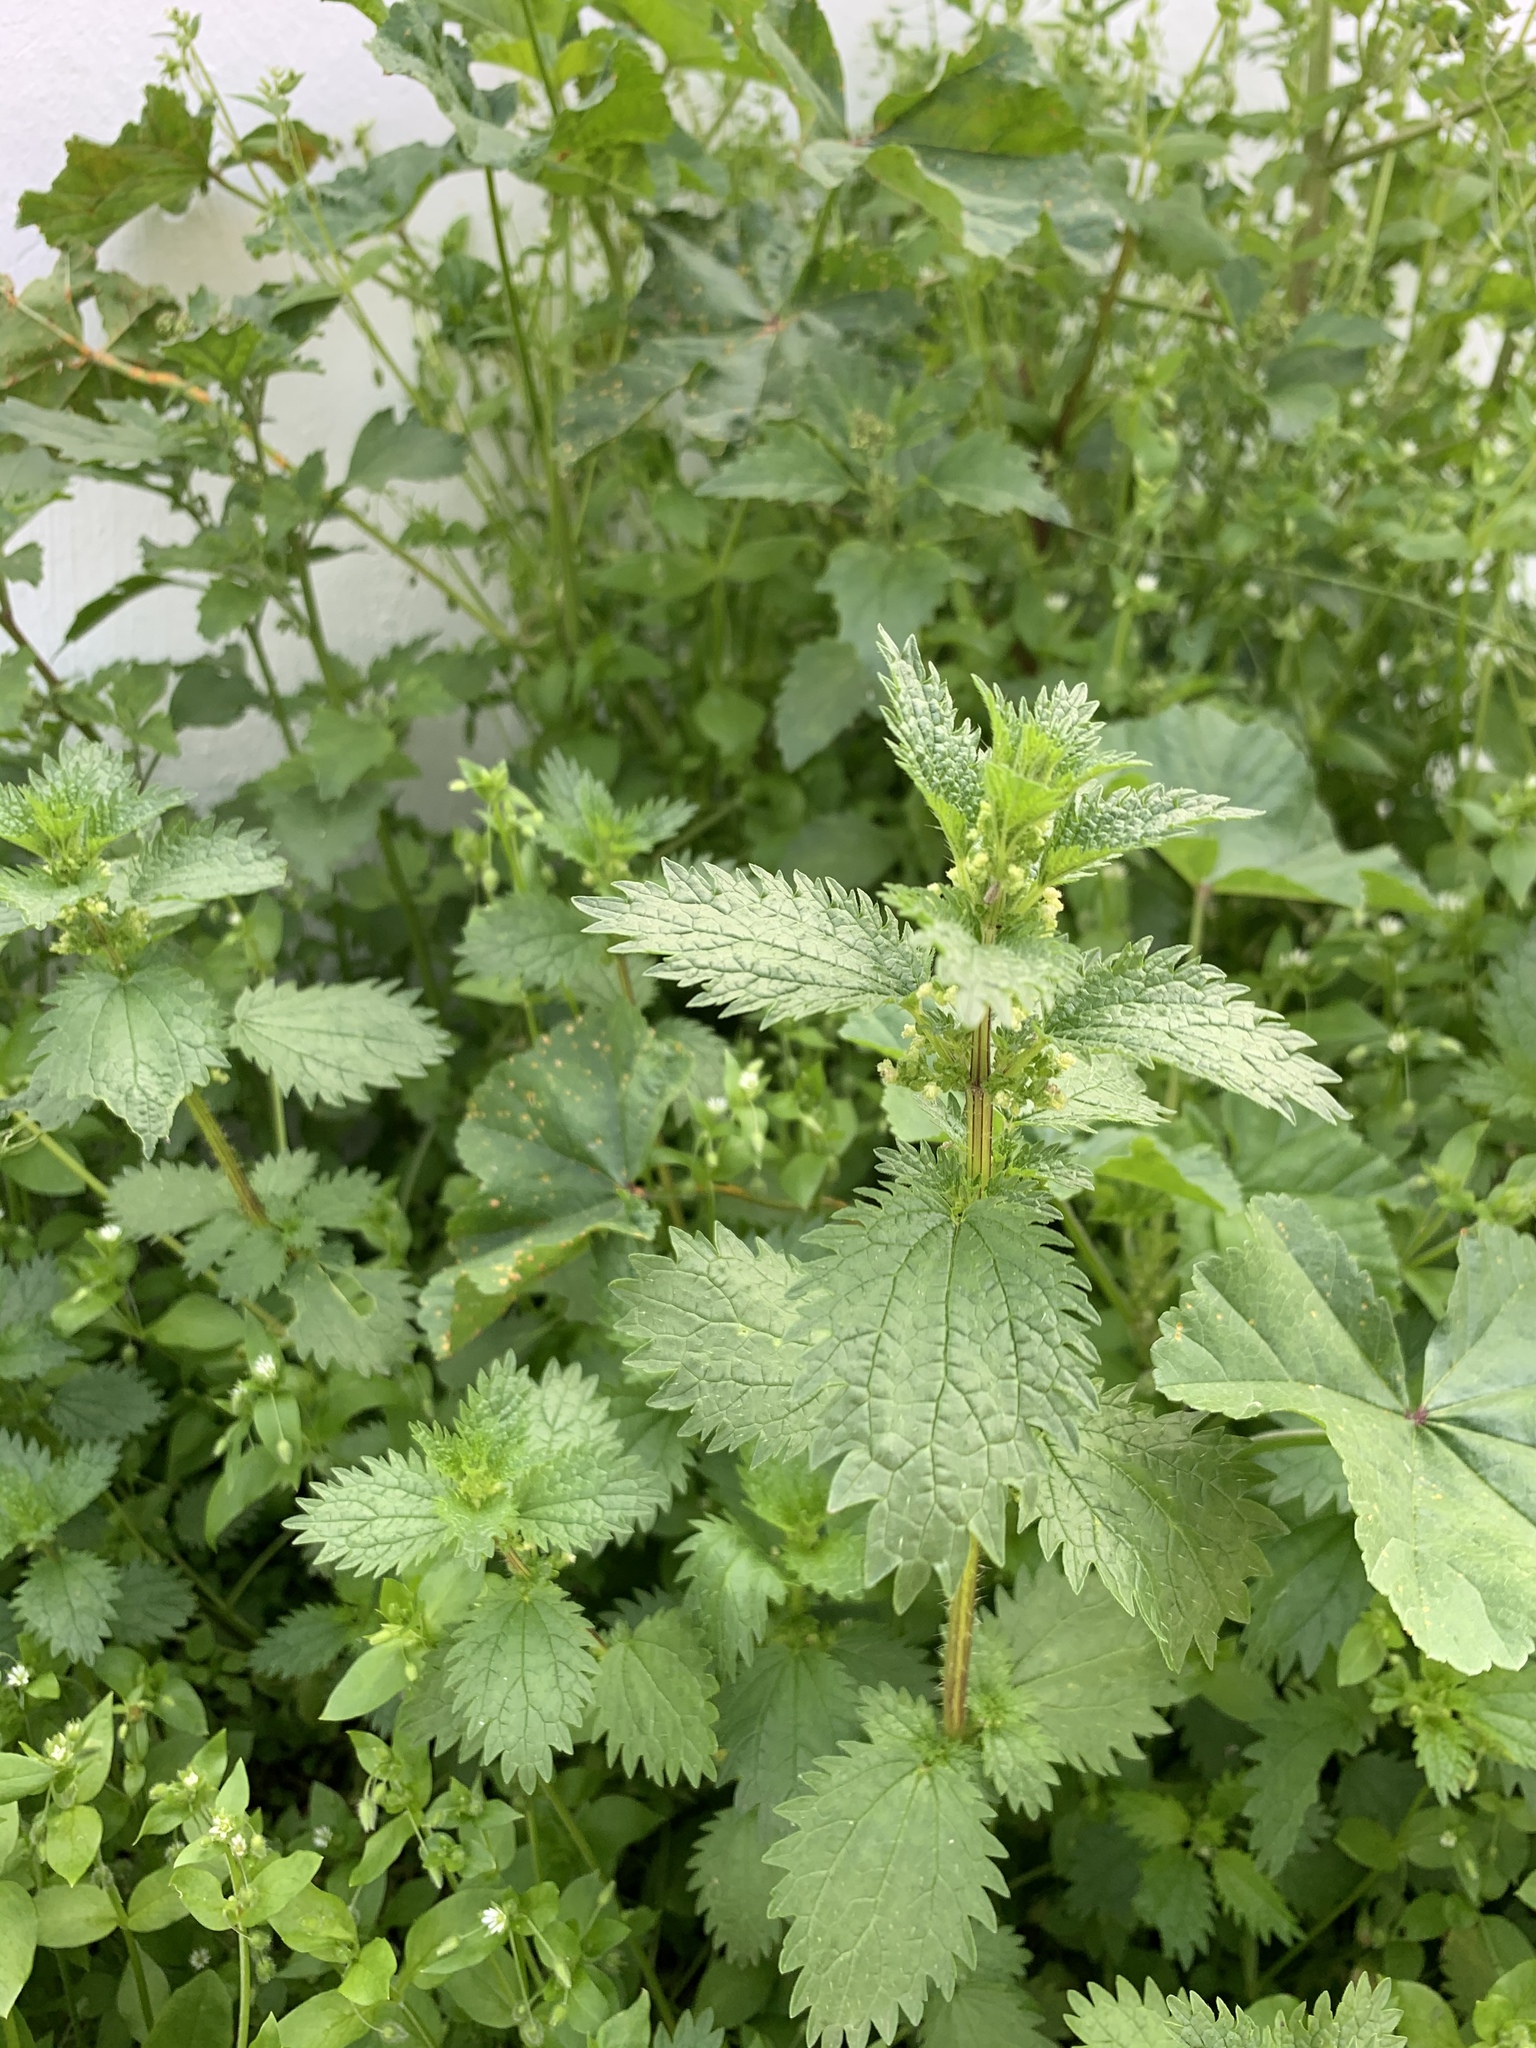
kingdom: Plantae
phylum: Tracheophyta
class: Magnoliopsida
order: Rosales
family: Urticaceae
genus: Urtica
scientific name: Urtica urens
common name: Dwarf nettle
